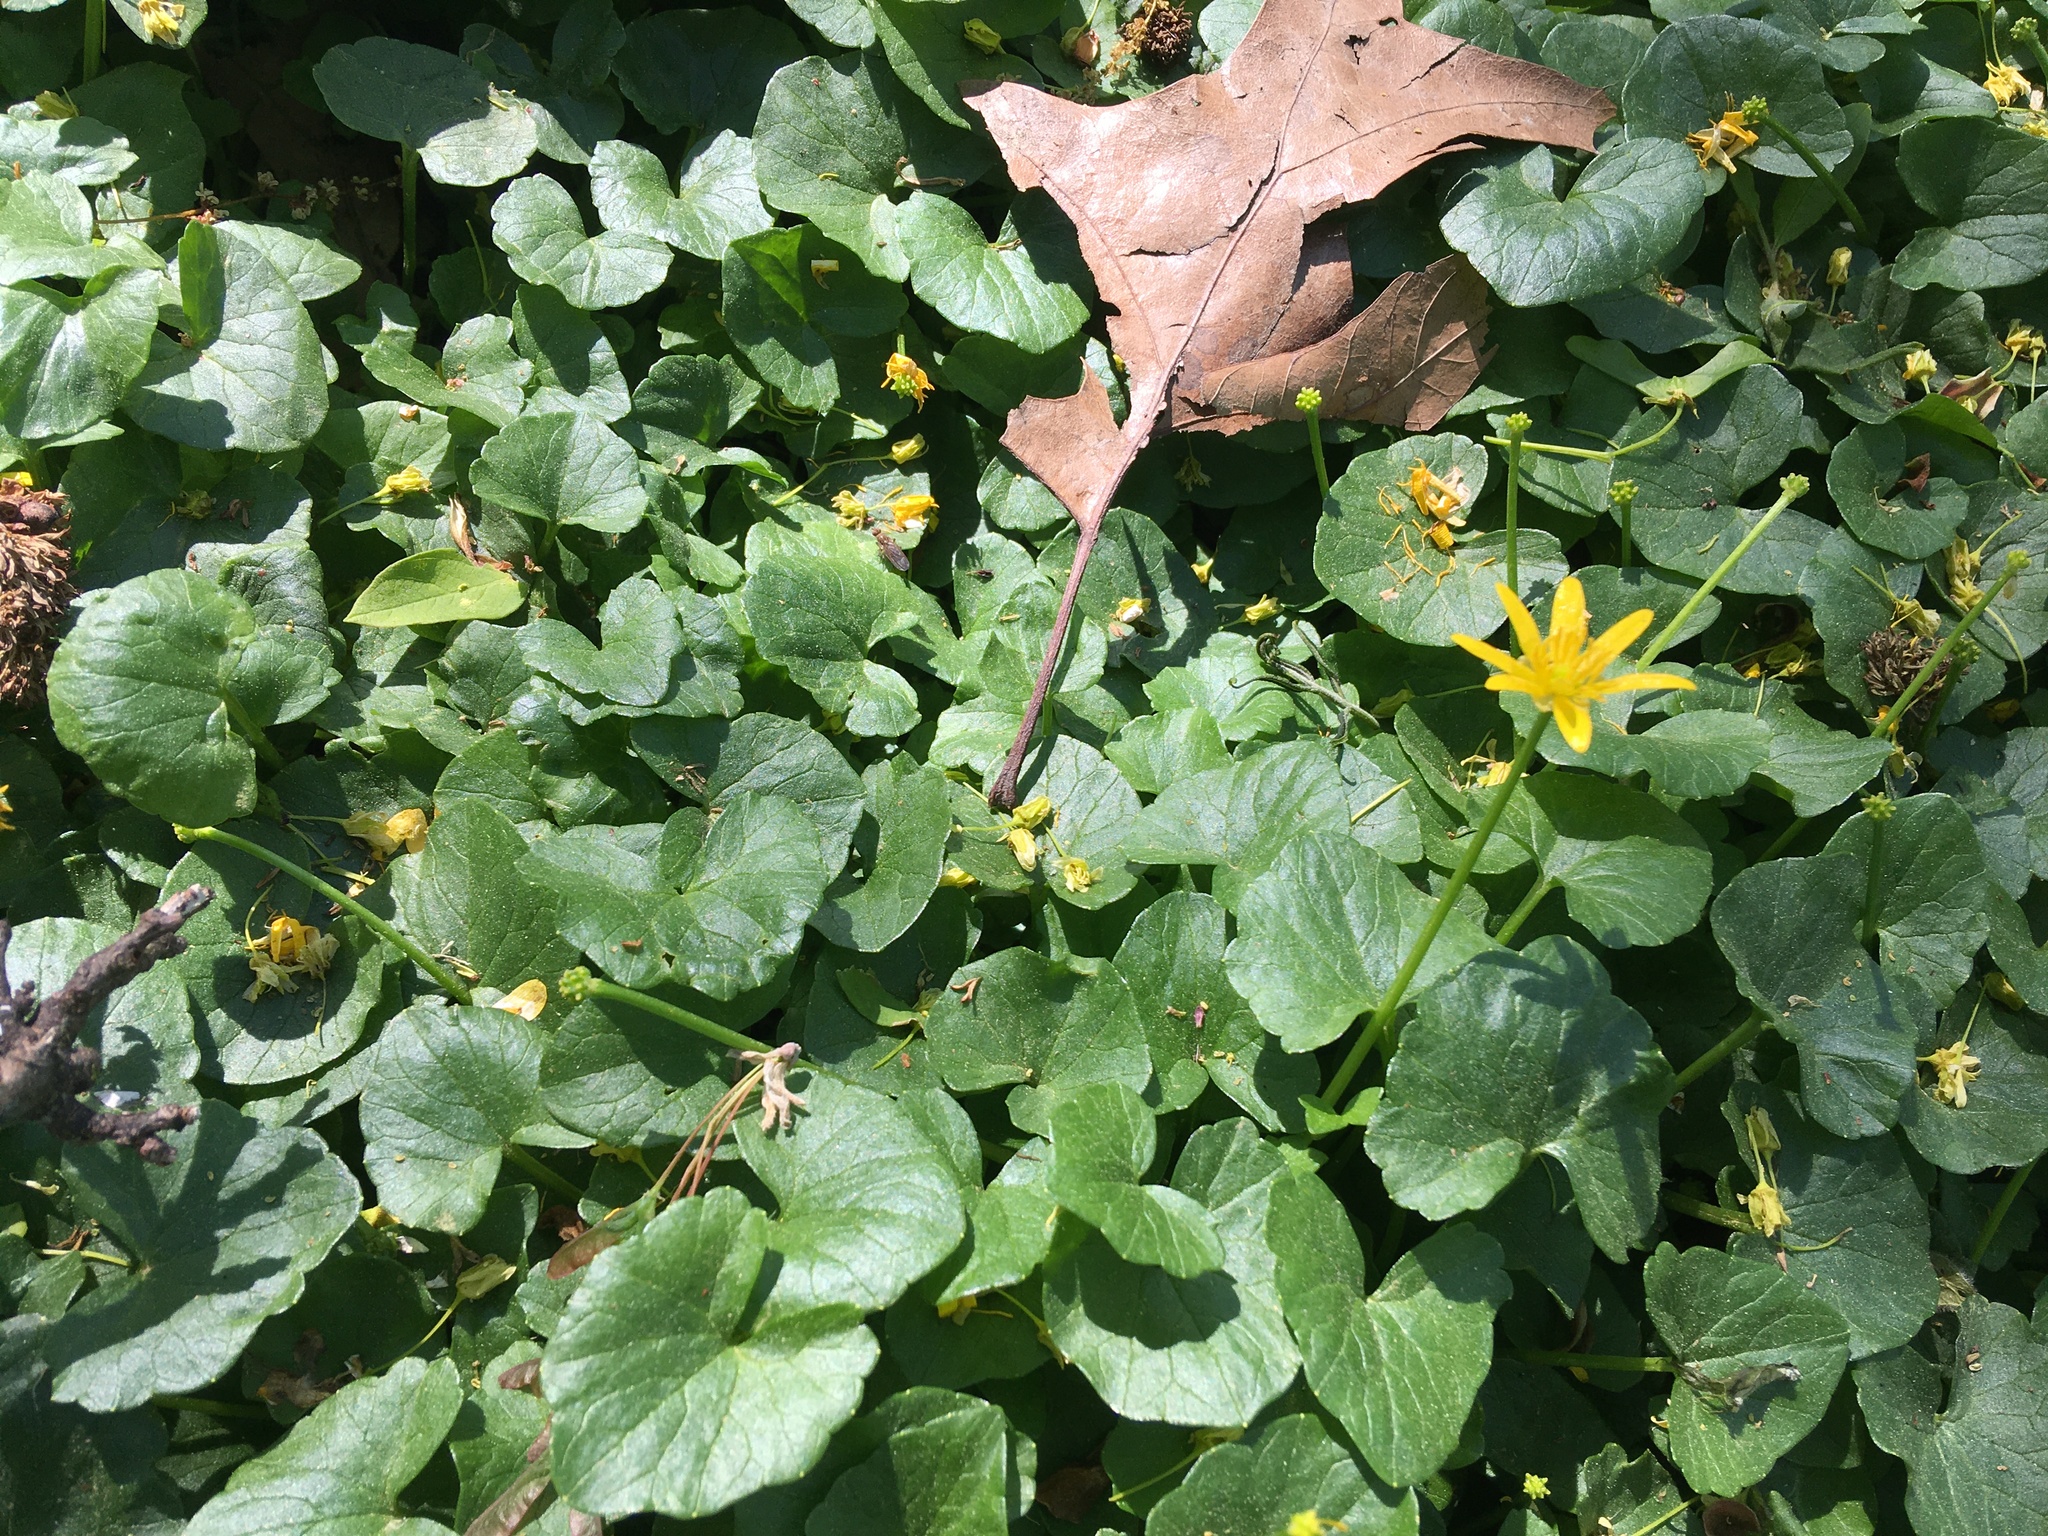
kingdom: Plantae
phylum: Tracheophyta
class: Magnoliopsida
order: Ranunculales
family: Ranunculaceae
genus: Ficaria
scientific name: Ficaria verna
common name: Lesser celandine
